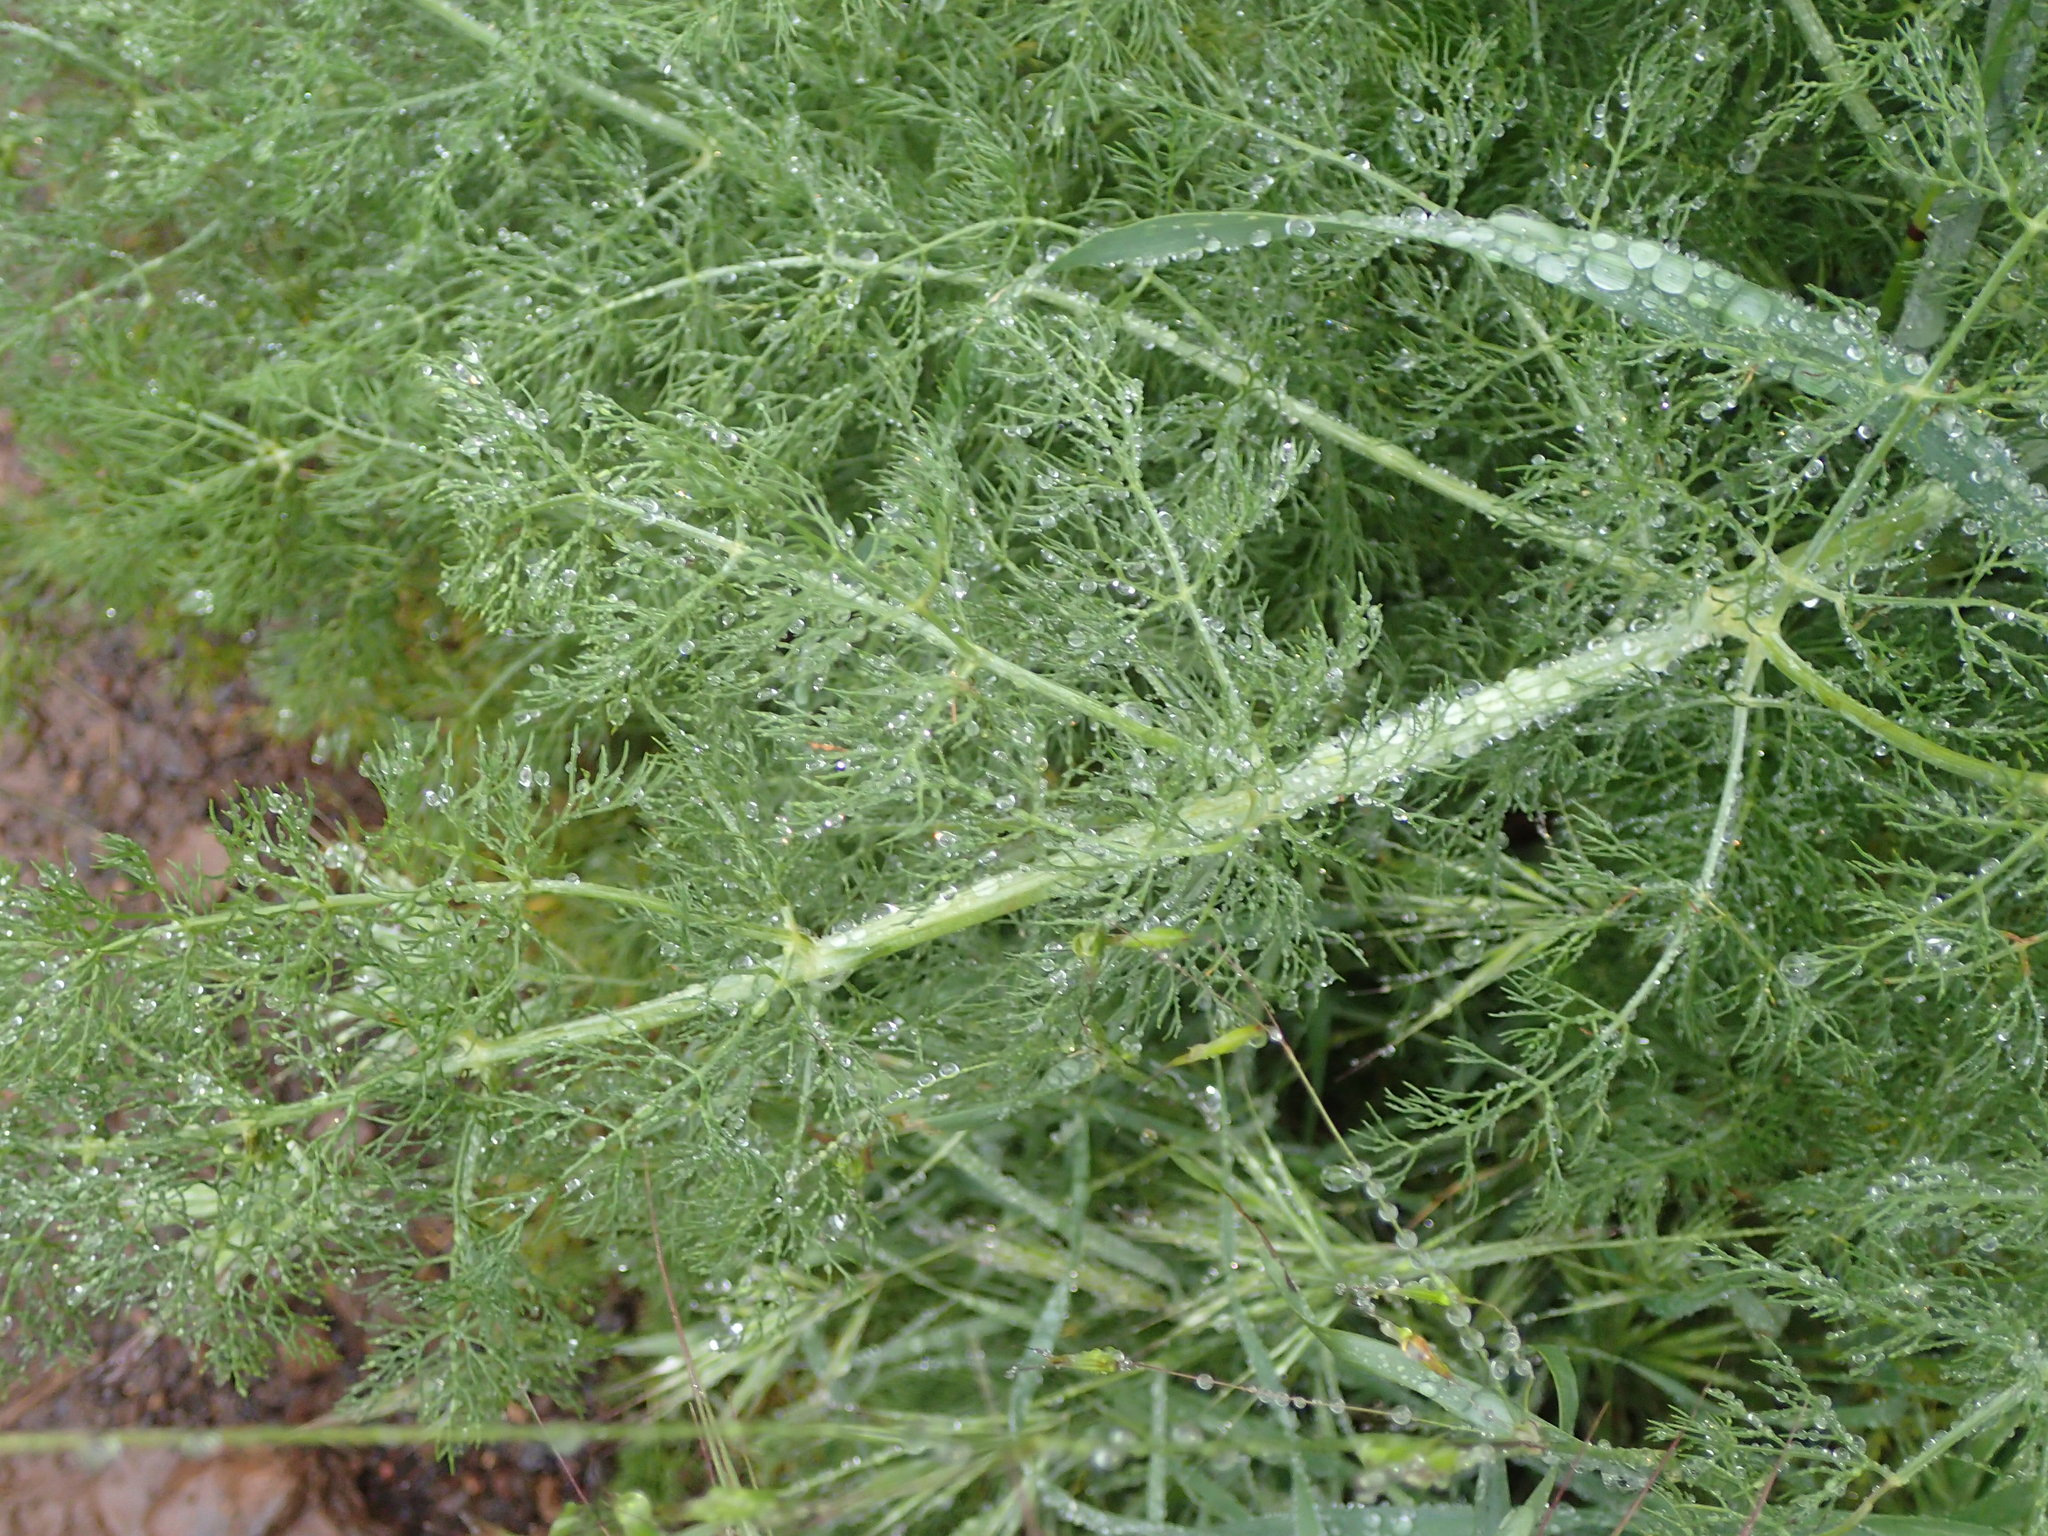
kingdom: Plantae
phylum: Tracheophyta
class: Magnoliopsida
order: Apiales
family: Apiaceae
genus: Foeniculum
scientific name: Foeniculum vulgare
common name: Fennel
